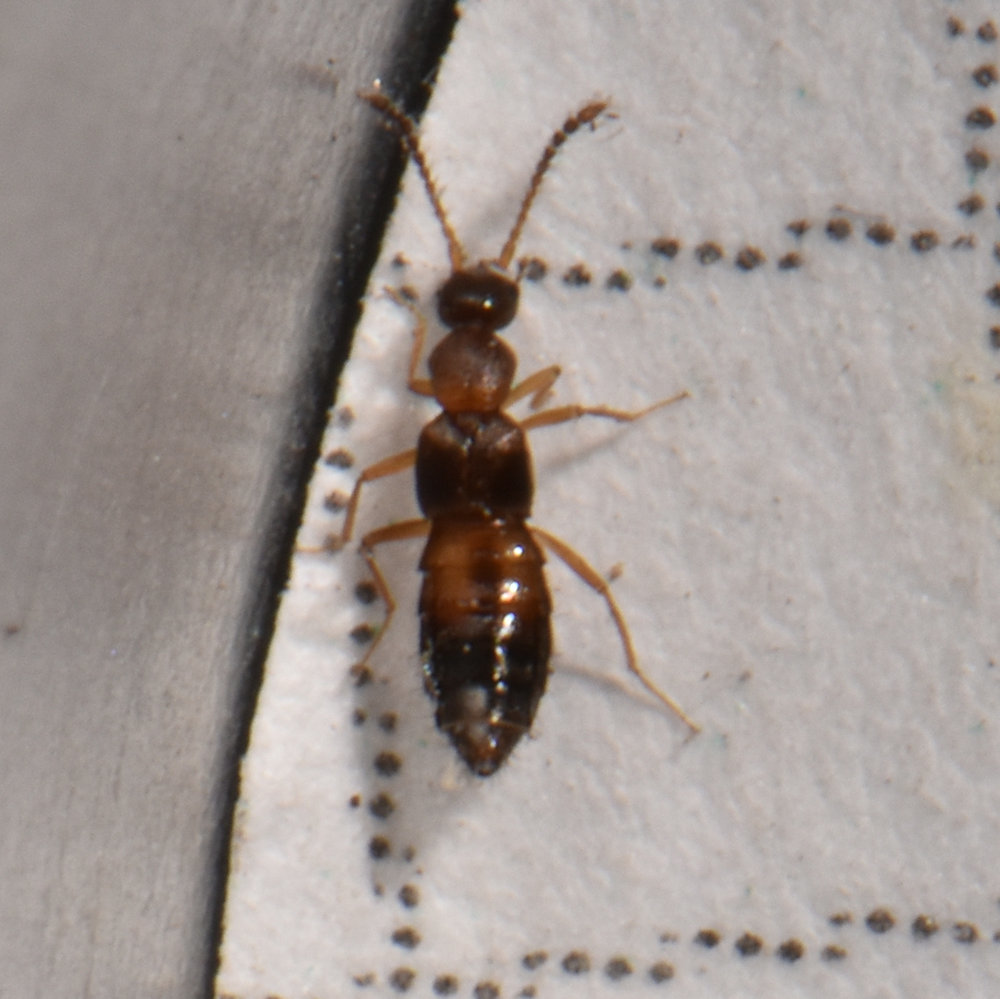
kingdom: Animalia
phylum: Arthropoda
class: Insecta
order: Coleoptera
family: Staphylinidae
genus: Meronera
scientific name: Meronera venustula
